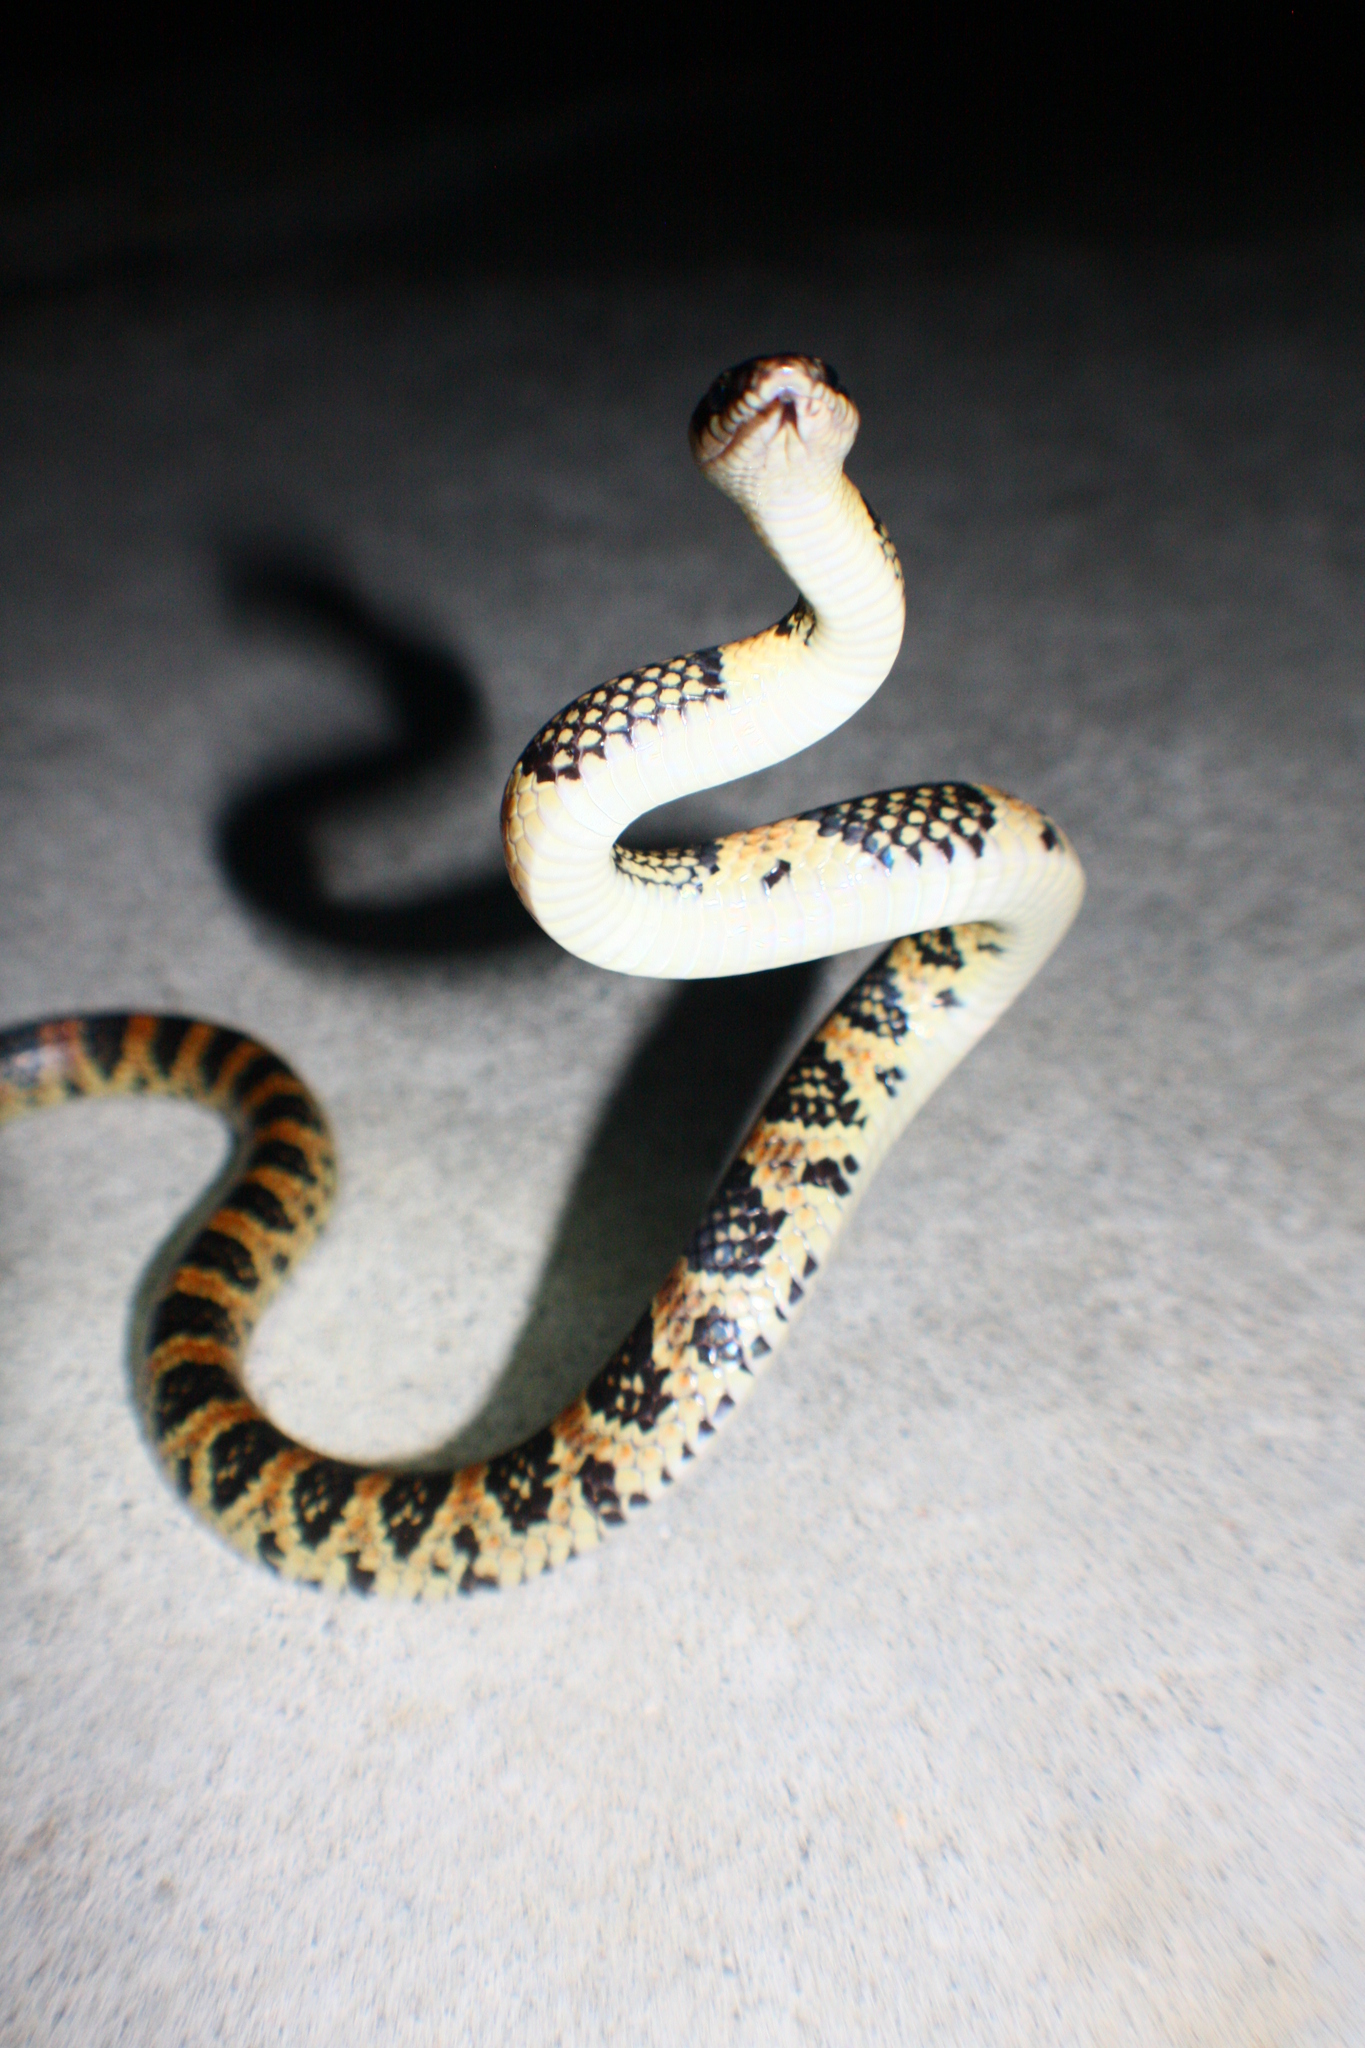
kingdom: Animalia
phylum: Chordata
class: Squamata
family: Colubridae
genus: Lycodon
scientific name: Lycodon semicarinatus
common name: Loo-choo big-tooth snake
